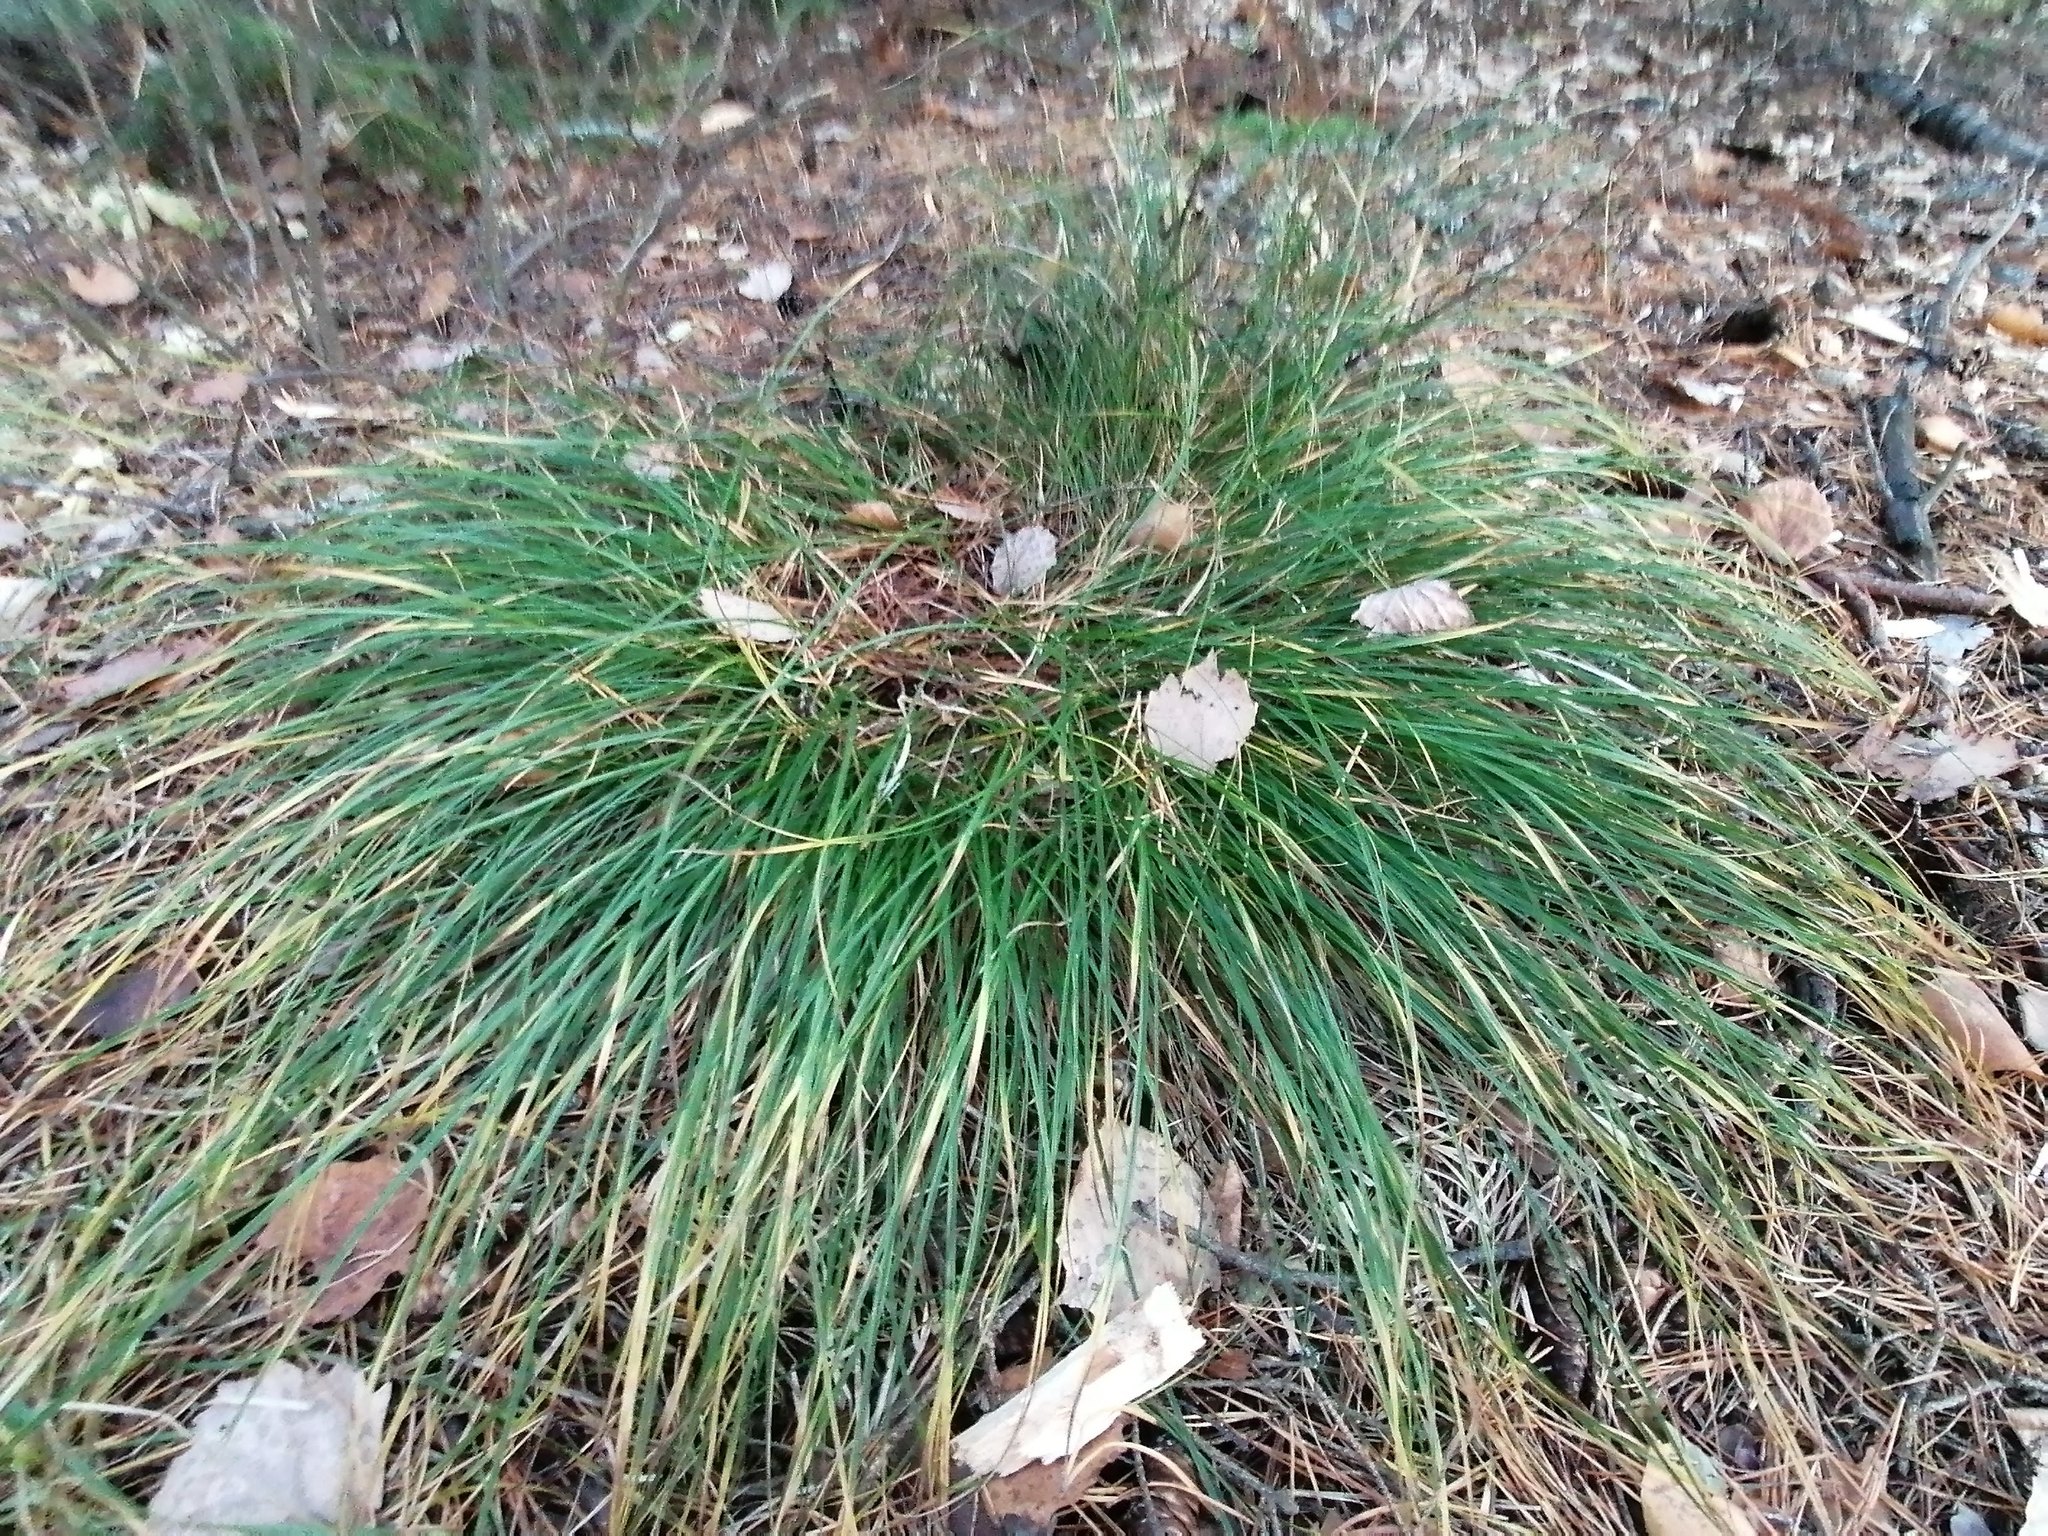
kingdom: Plantae
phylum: Tracheophyta
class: Liliopsida
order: Poales
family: Poaceae
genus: Deschampsia
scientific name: Deschampsia cespitosa
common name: Tufted hair-grass
